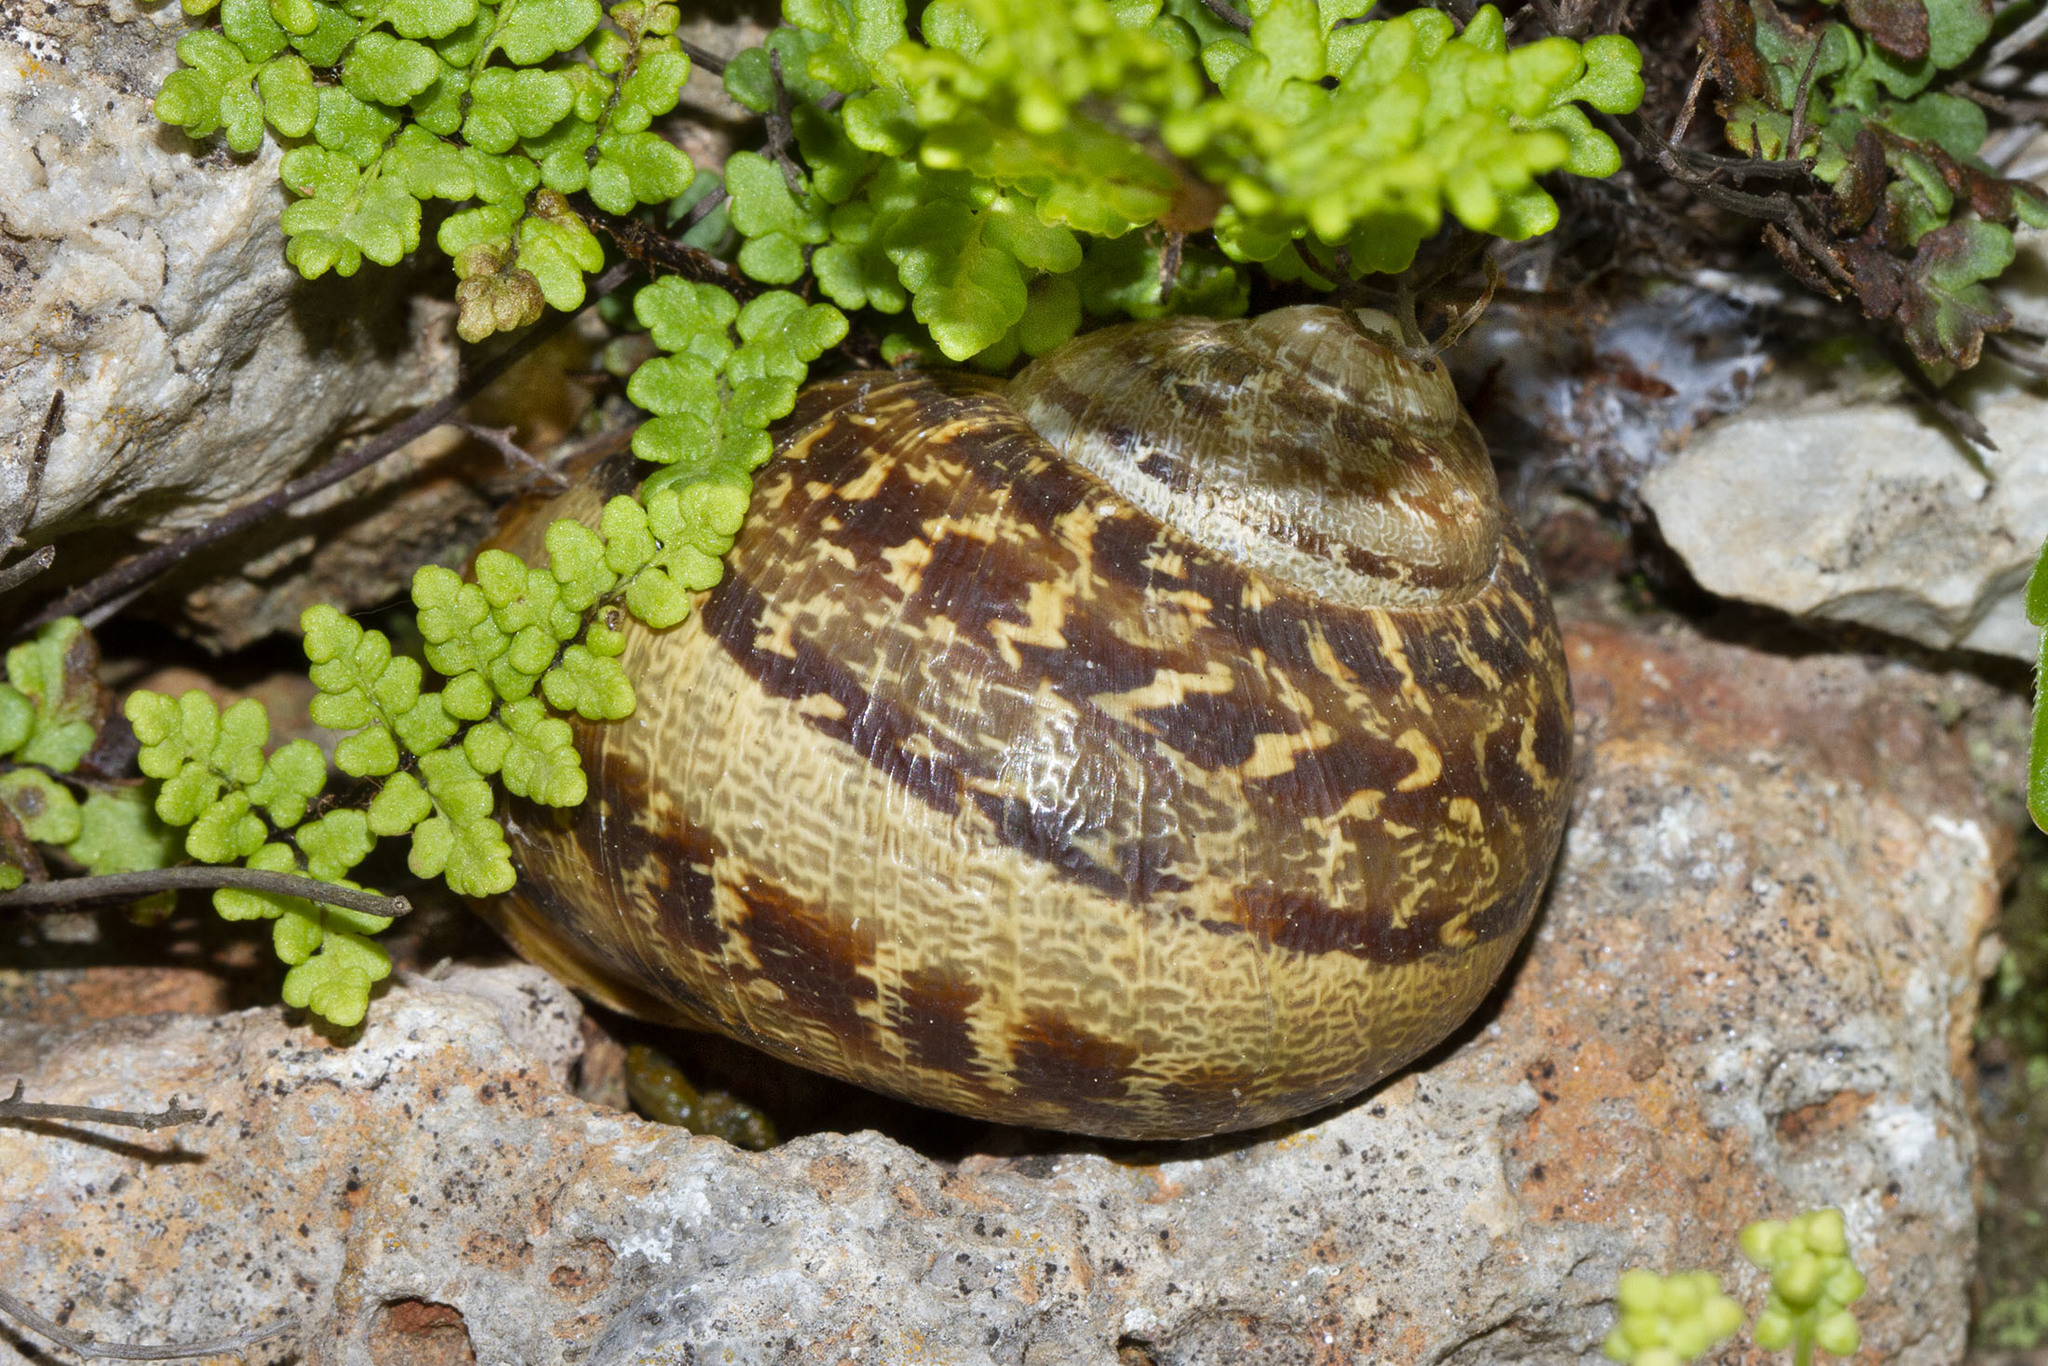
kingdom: Animalia
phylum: Mollusca
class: Gastropoda
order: Stylommatophora
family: Helicidae
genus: Cornu
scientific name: Cornu aspersum
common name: Brown garden snail
